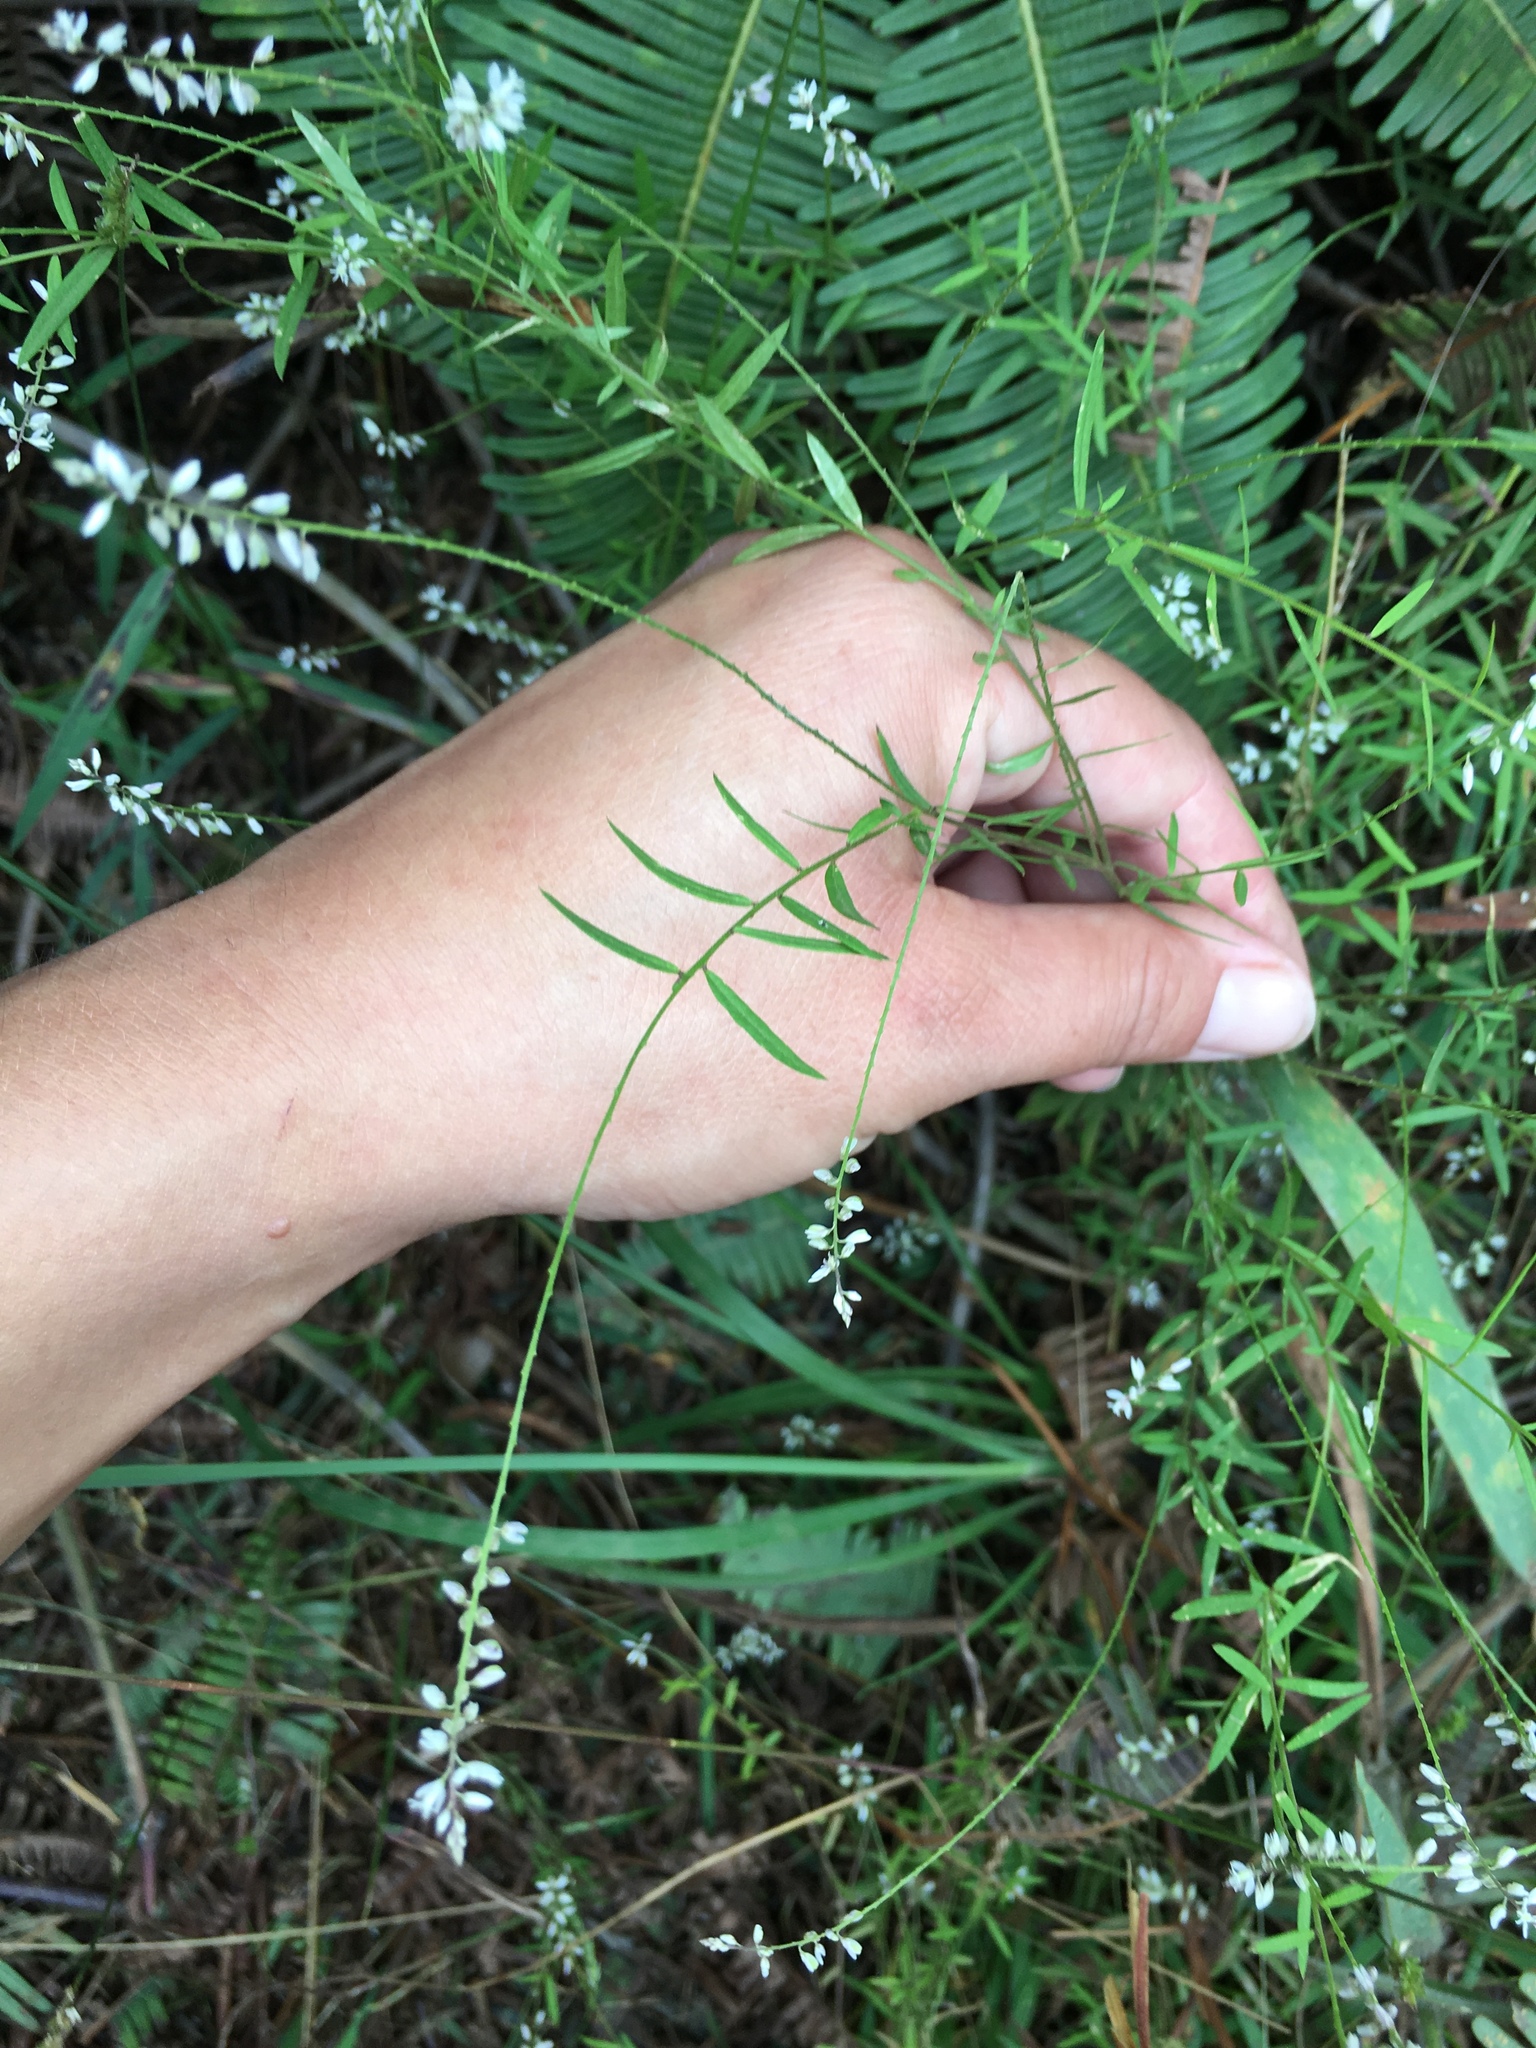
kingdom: Plantae
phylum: Tracheophyta
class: Magnoliopsida
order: Fabales
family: Polygalaceae
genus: Polygala
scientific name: Polygala paniculata
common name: Orosne
